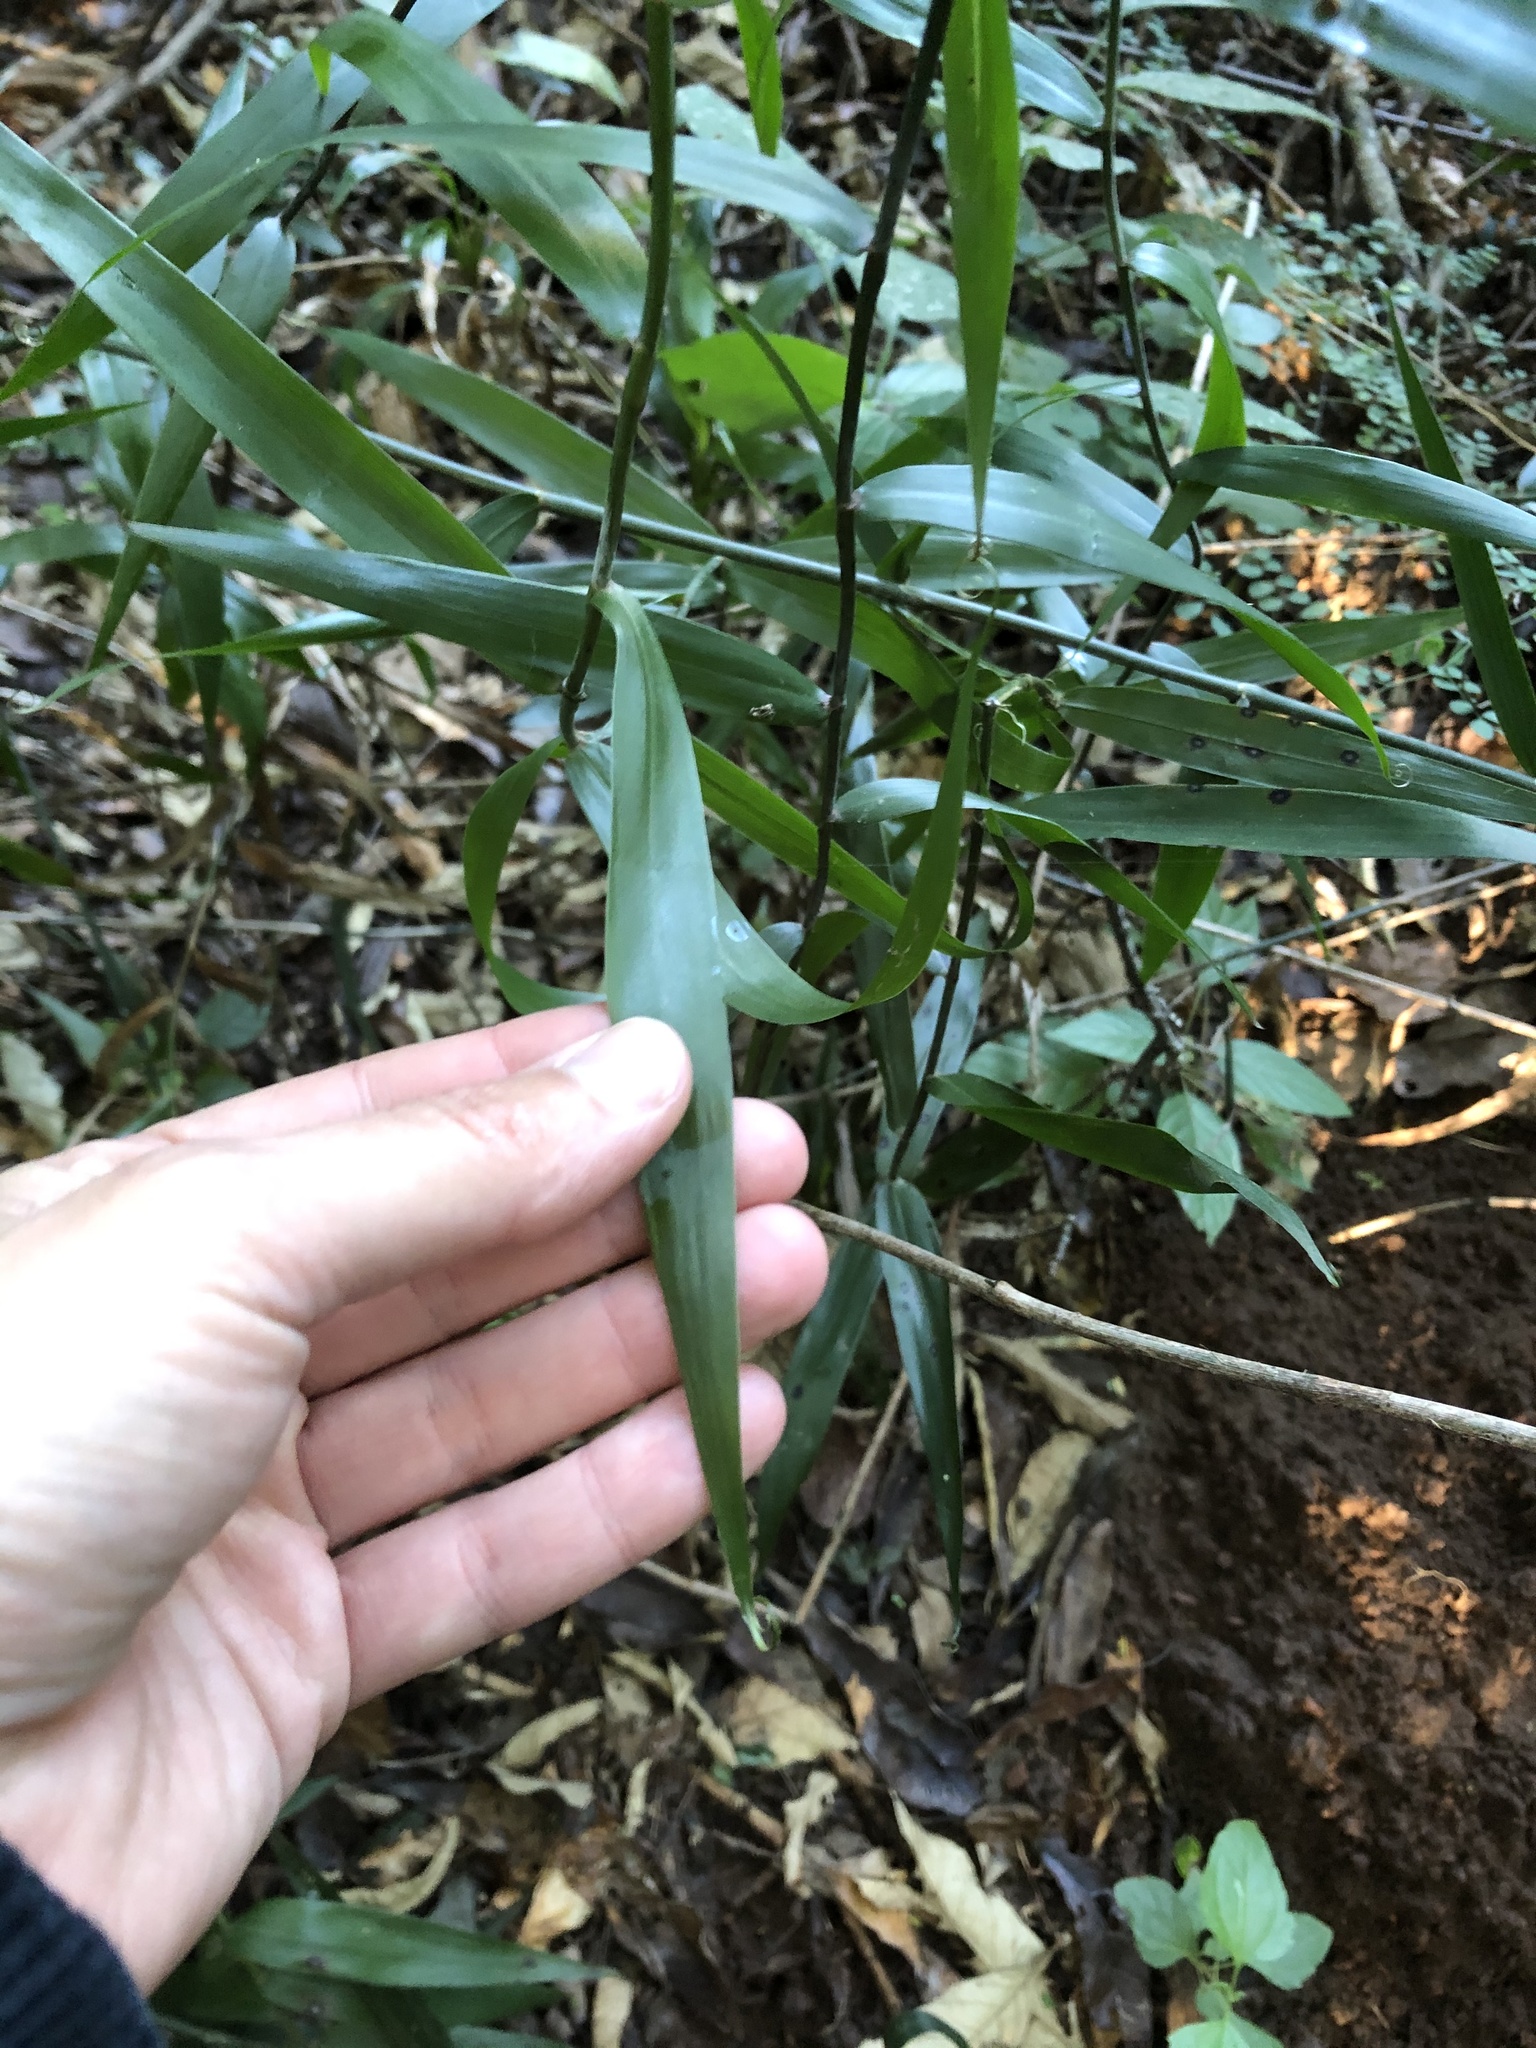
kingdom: Plantae
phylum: Tracheophyta
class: Liliopsida
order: Poales
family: Flagellariaceae
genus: Flagellaria
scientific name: Flagellaria guineensis
